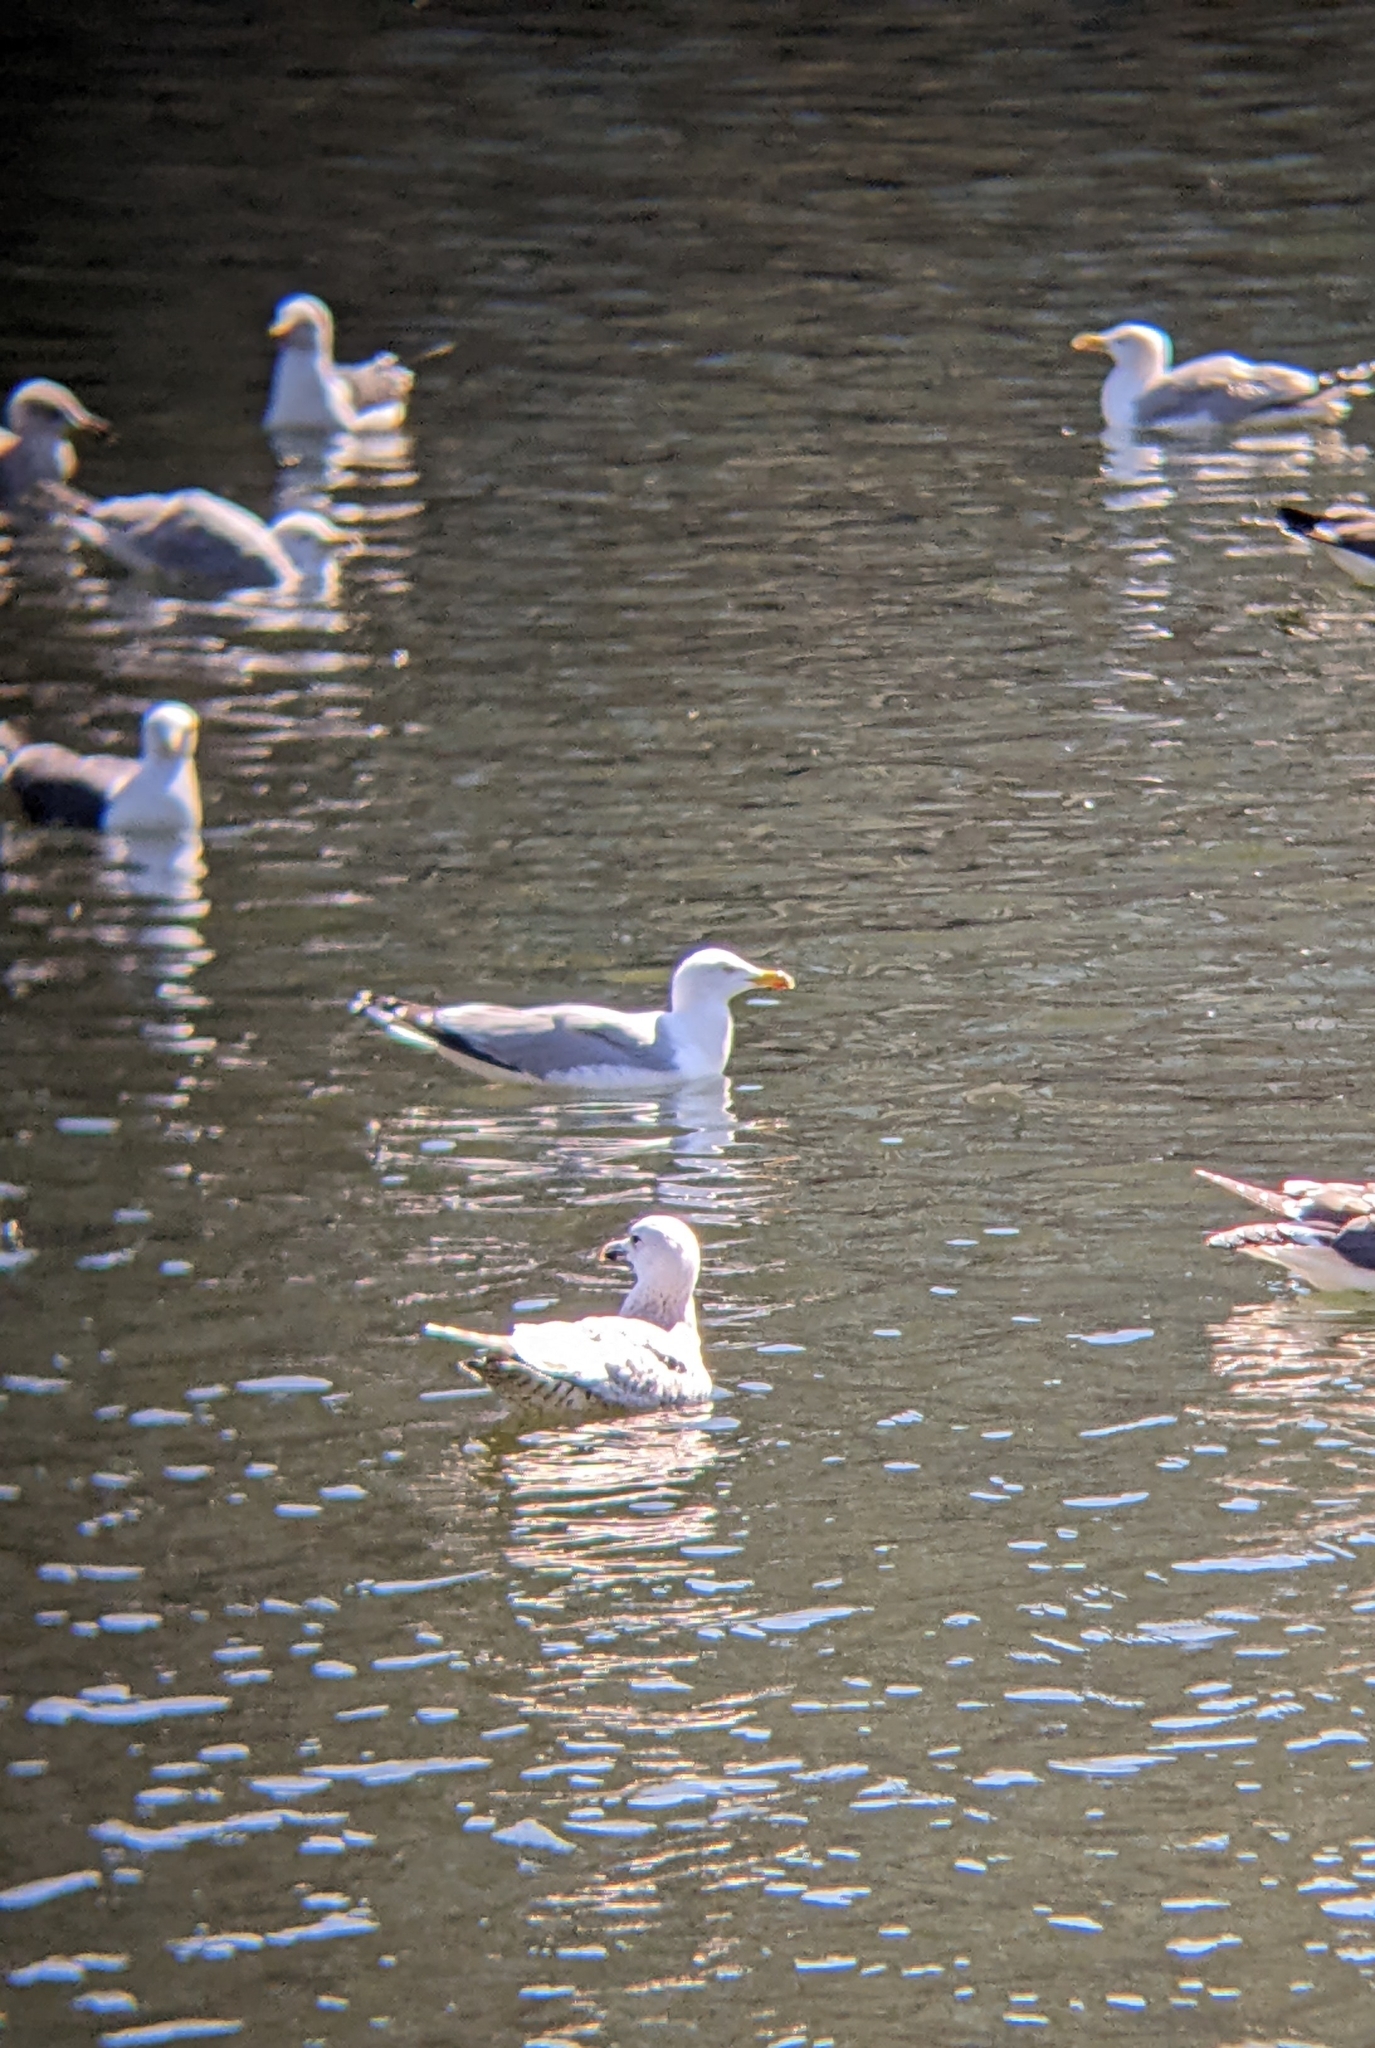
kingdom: Animalia
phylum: Chordata
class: Aves
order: Charadriiformes
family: Laridae
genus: Larus
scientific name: Larus argentatus
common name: Herring gull
